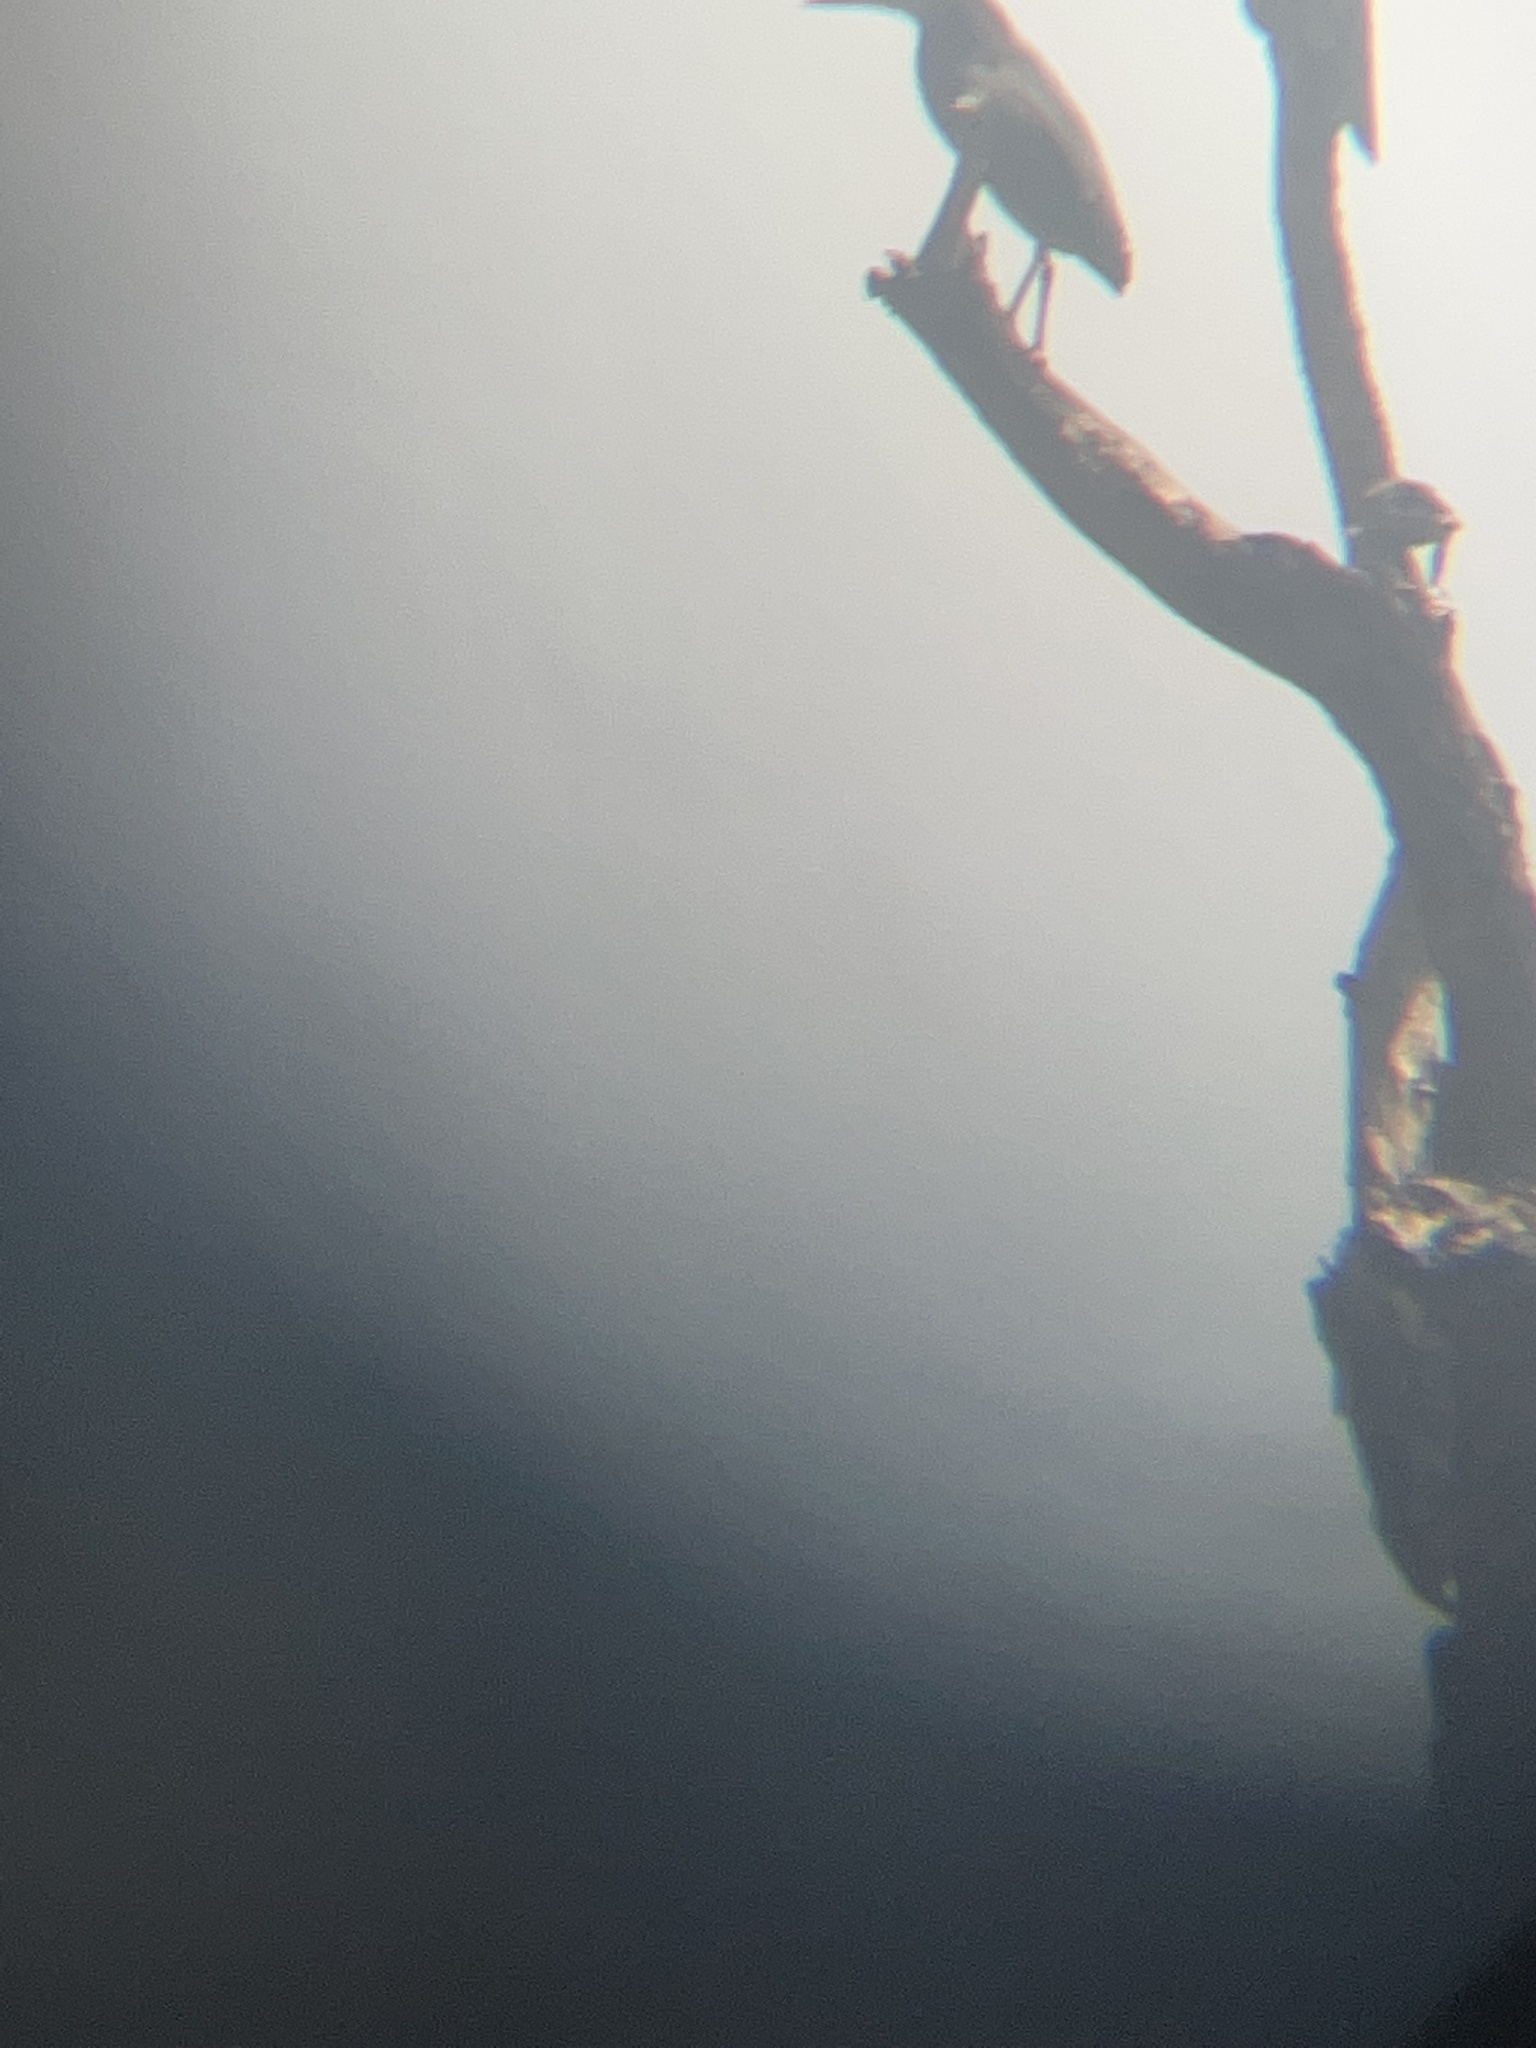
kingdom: Animalia
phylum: Chordata
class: Aves
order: Pelecaniformes
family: Ardeidae
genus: Butorides
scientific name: Butorides virescens
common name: Green heron
